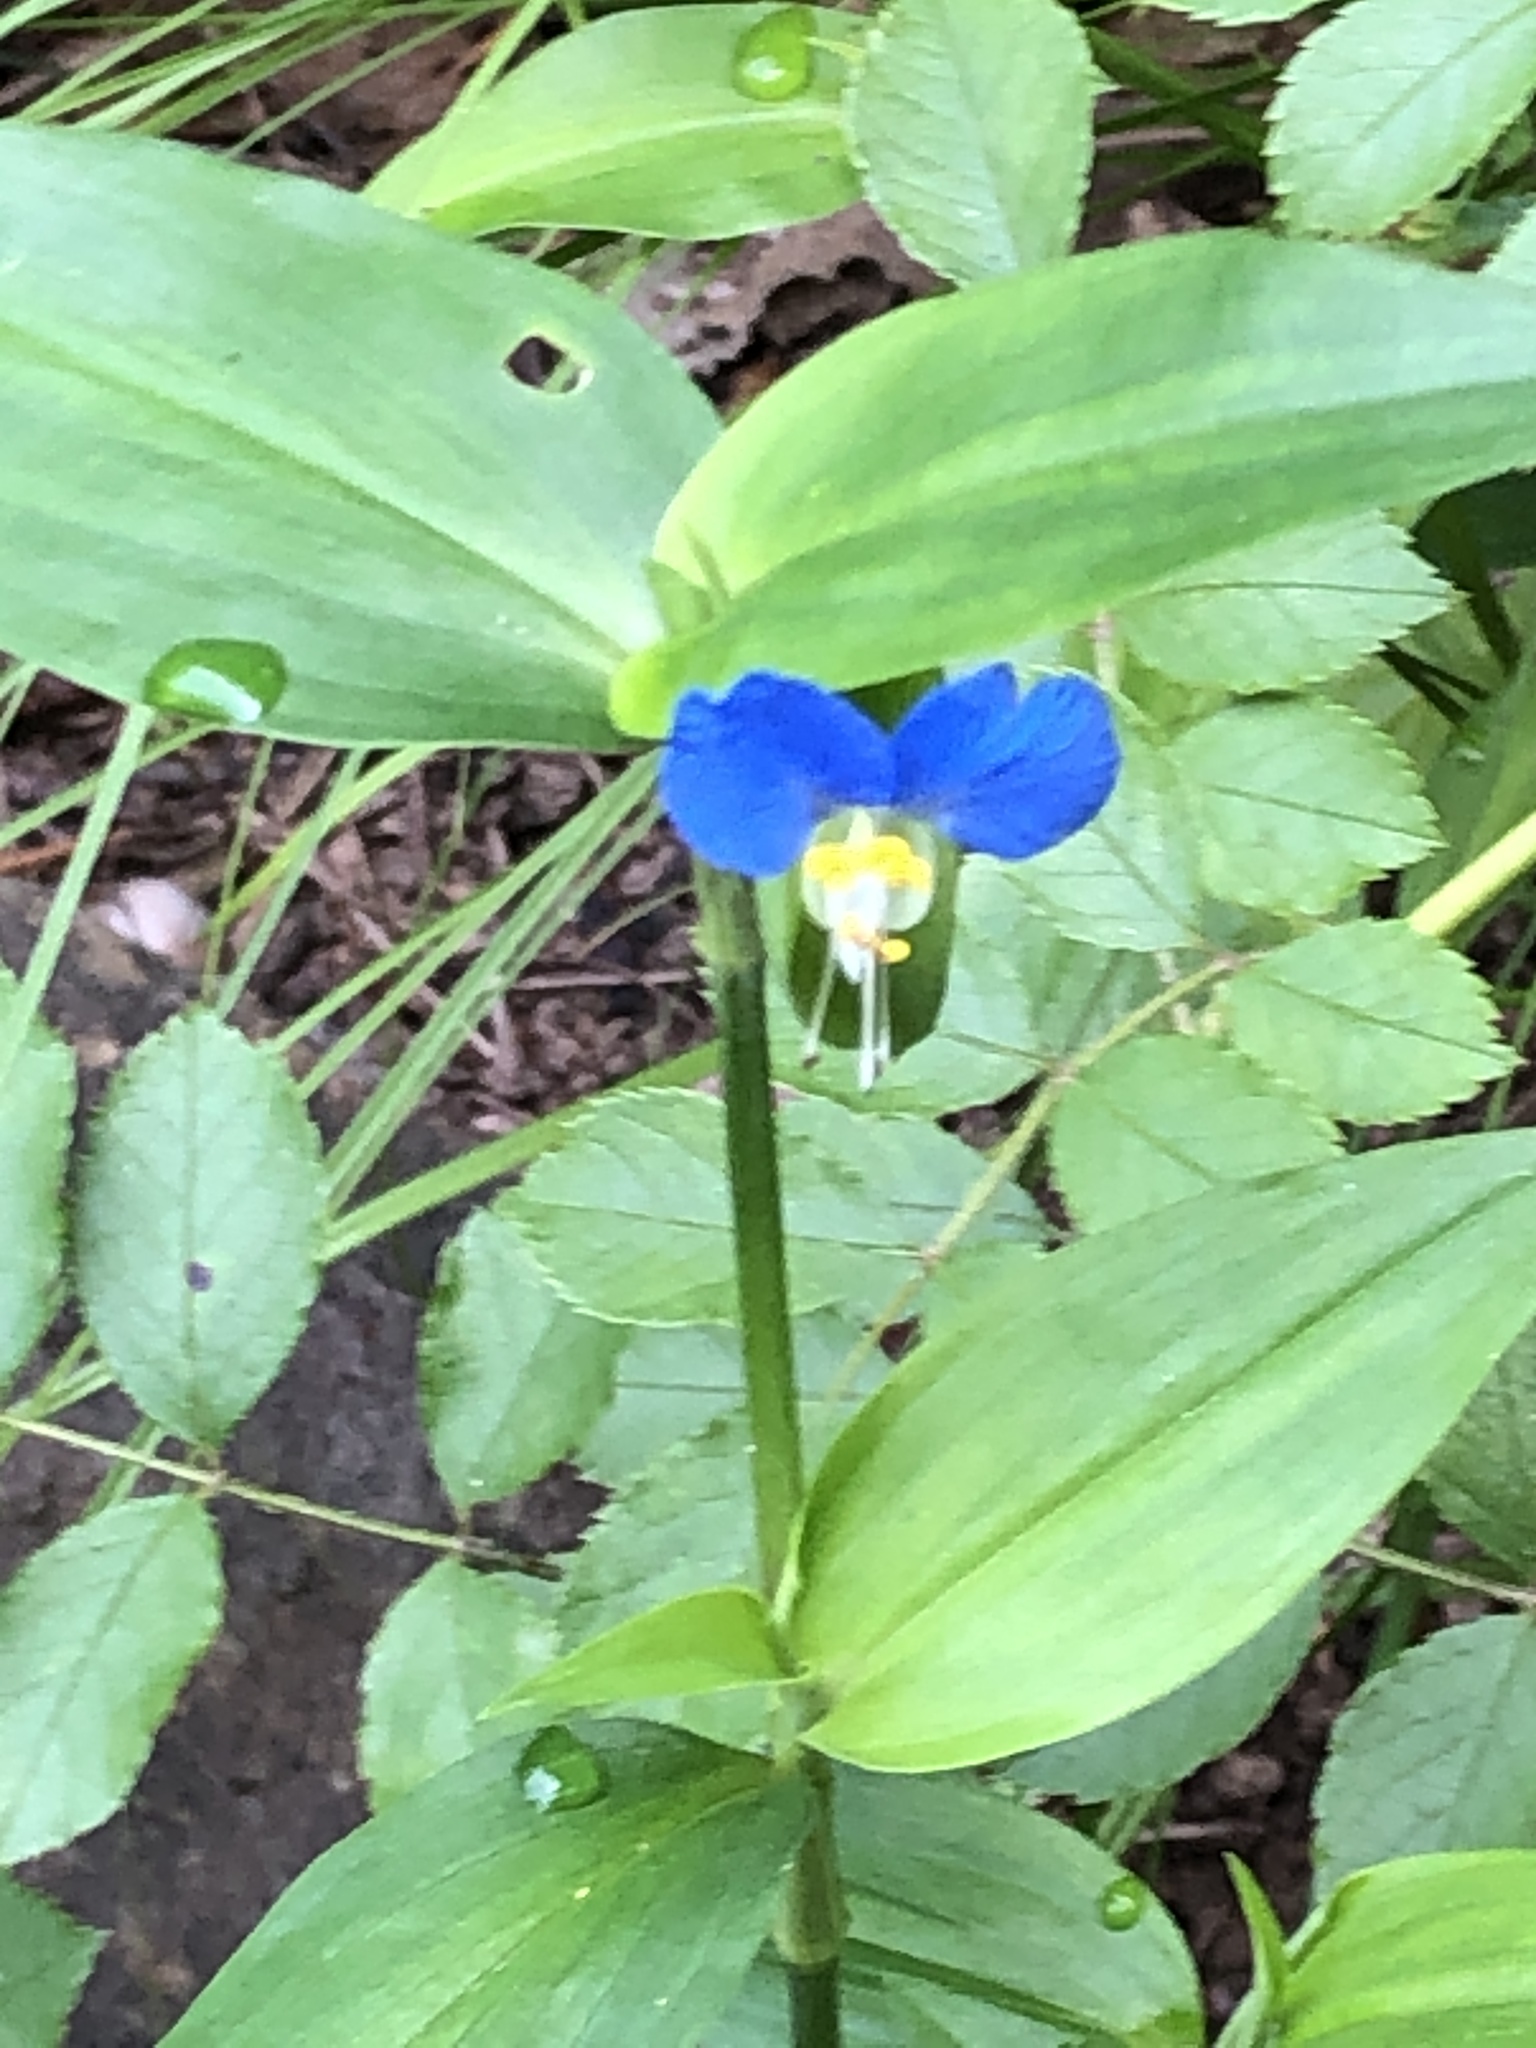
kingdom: Plantae
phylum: Tracheophyta
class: Liliopsida
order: Commelinales
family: Commelinaceae
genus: Commelina
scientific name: Commelina communis
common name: Asiatic dayflower
